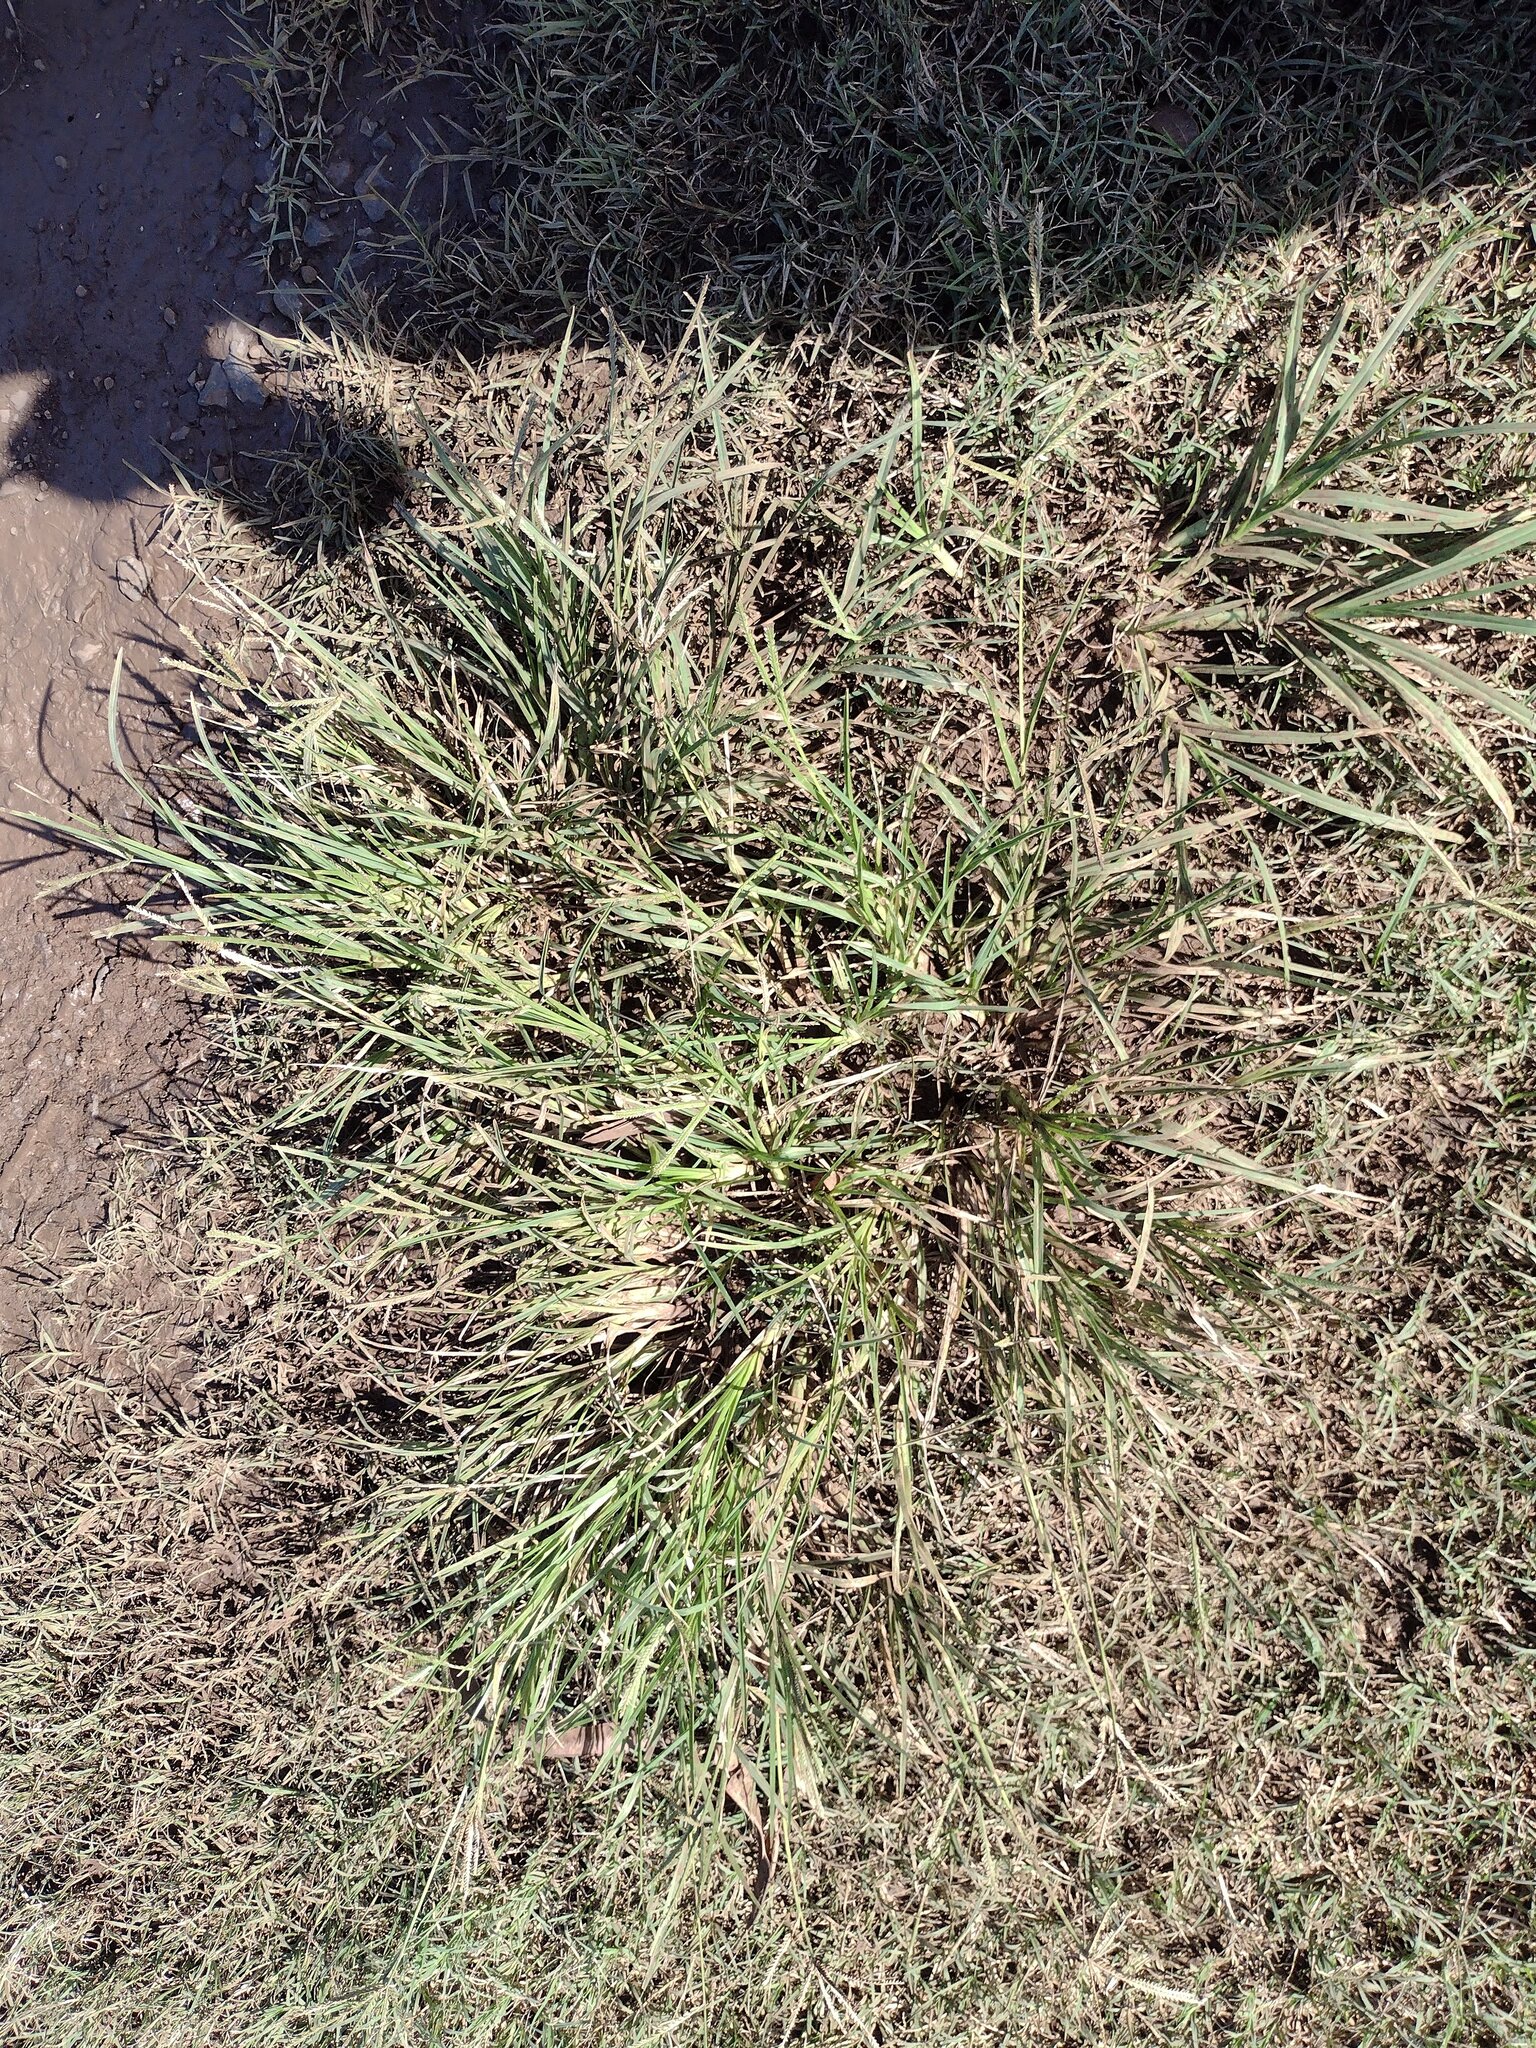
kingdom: Plantae
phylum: Tracheophyta
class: Liliopsida
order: Poales
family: Poaceae
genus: Eleusine
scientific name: Eleusine indica
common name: Yard-grass
